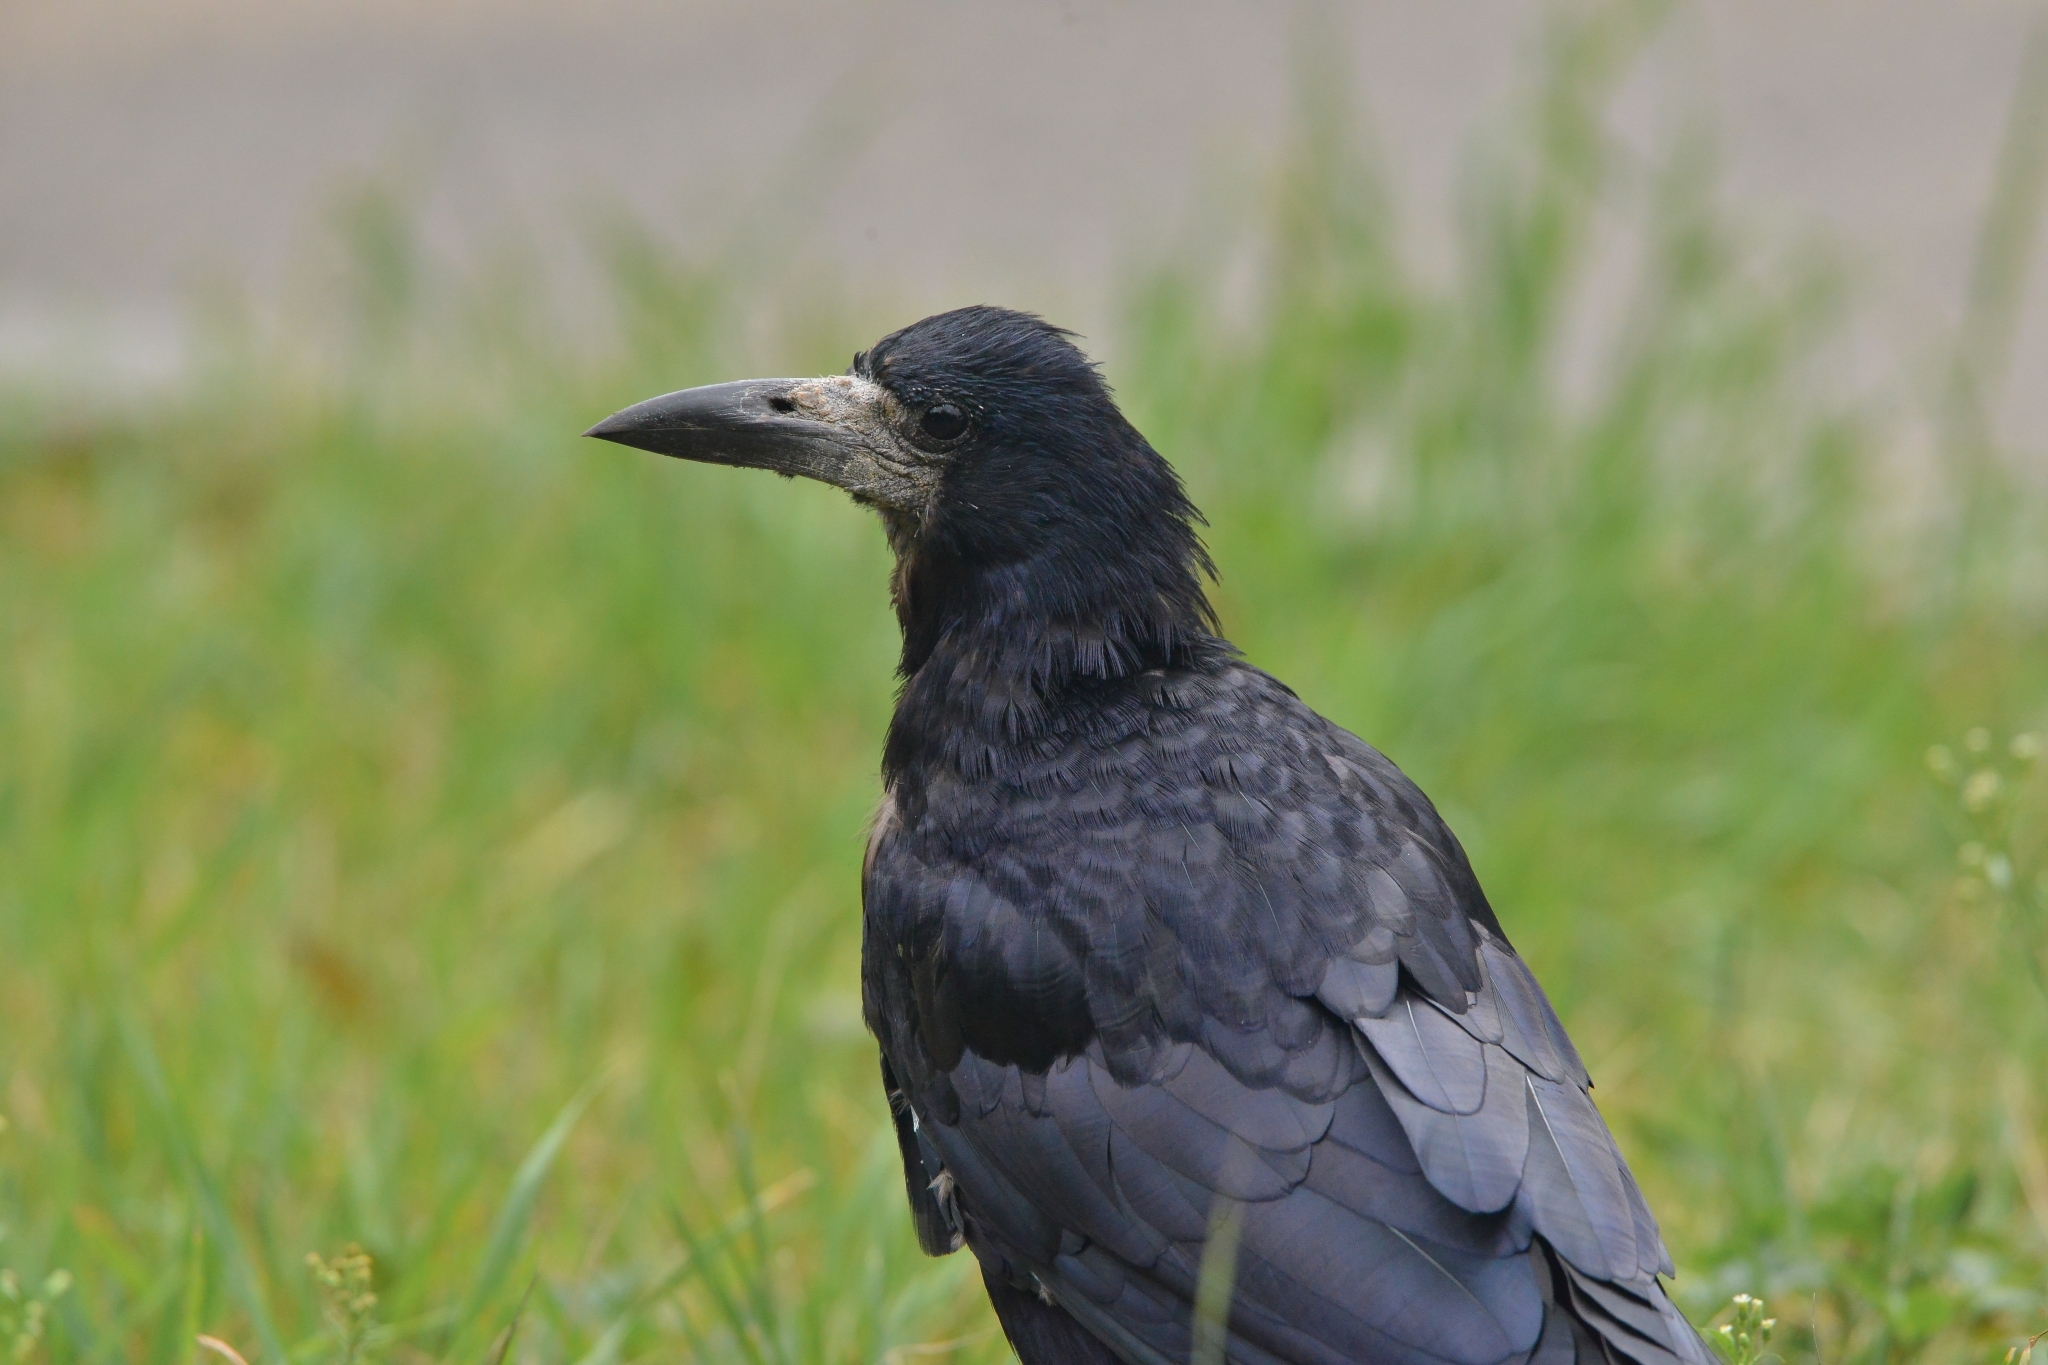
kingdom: Animalia
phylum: Chordata
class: Aves
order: Passeriformes
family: Corvidae
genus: Corvus
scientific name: Corvus frugilegus
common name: Rook
